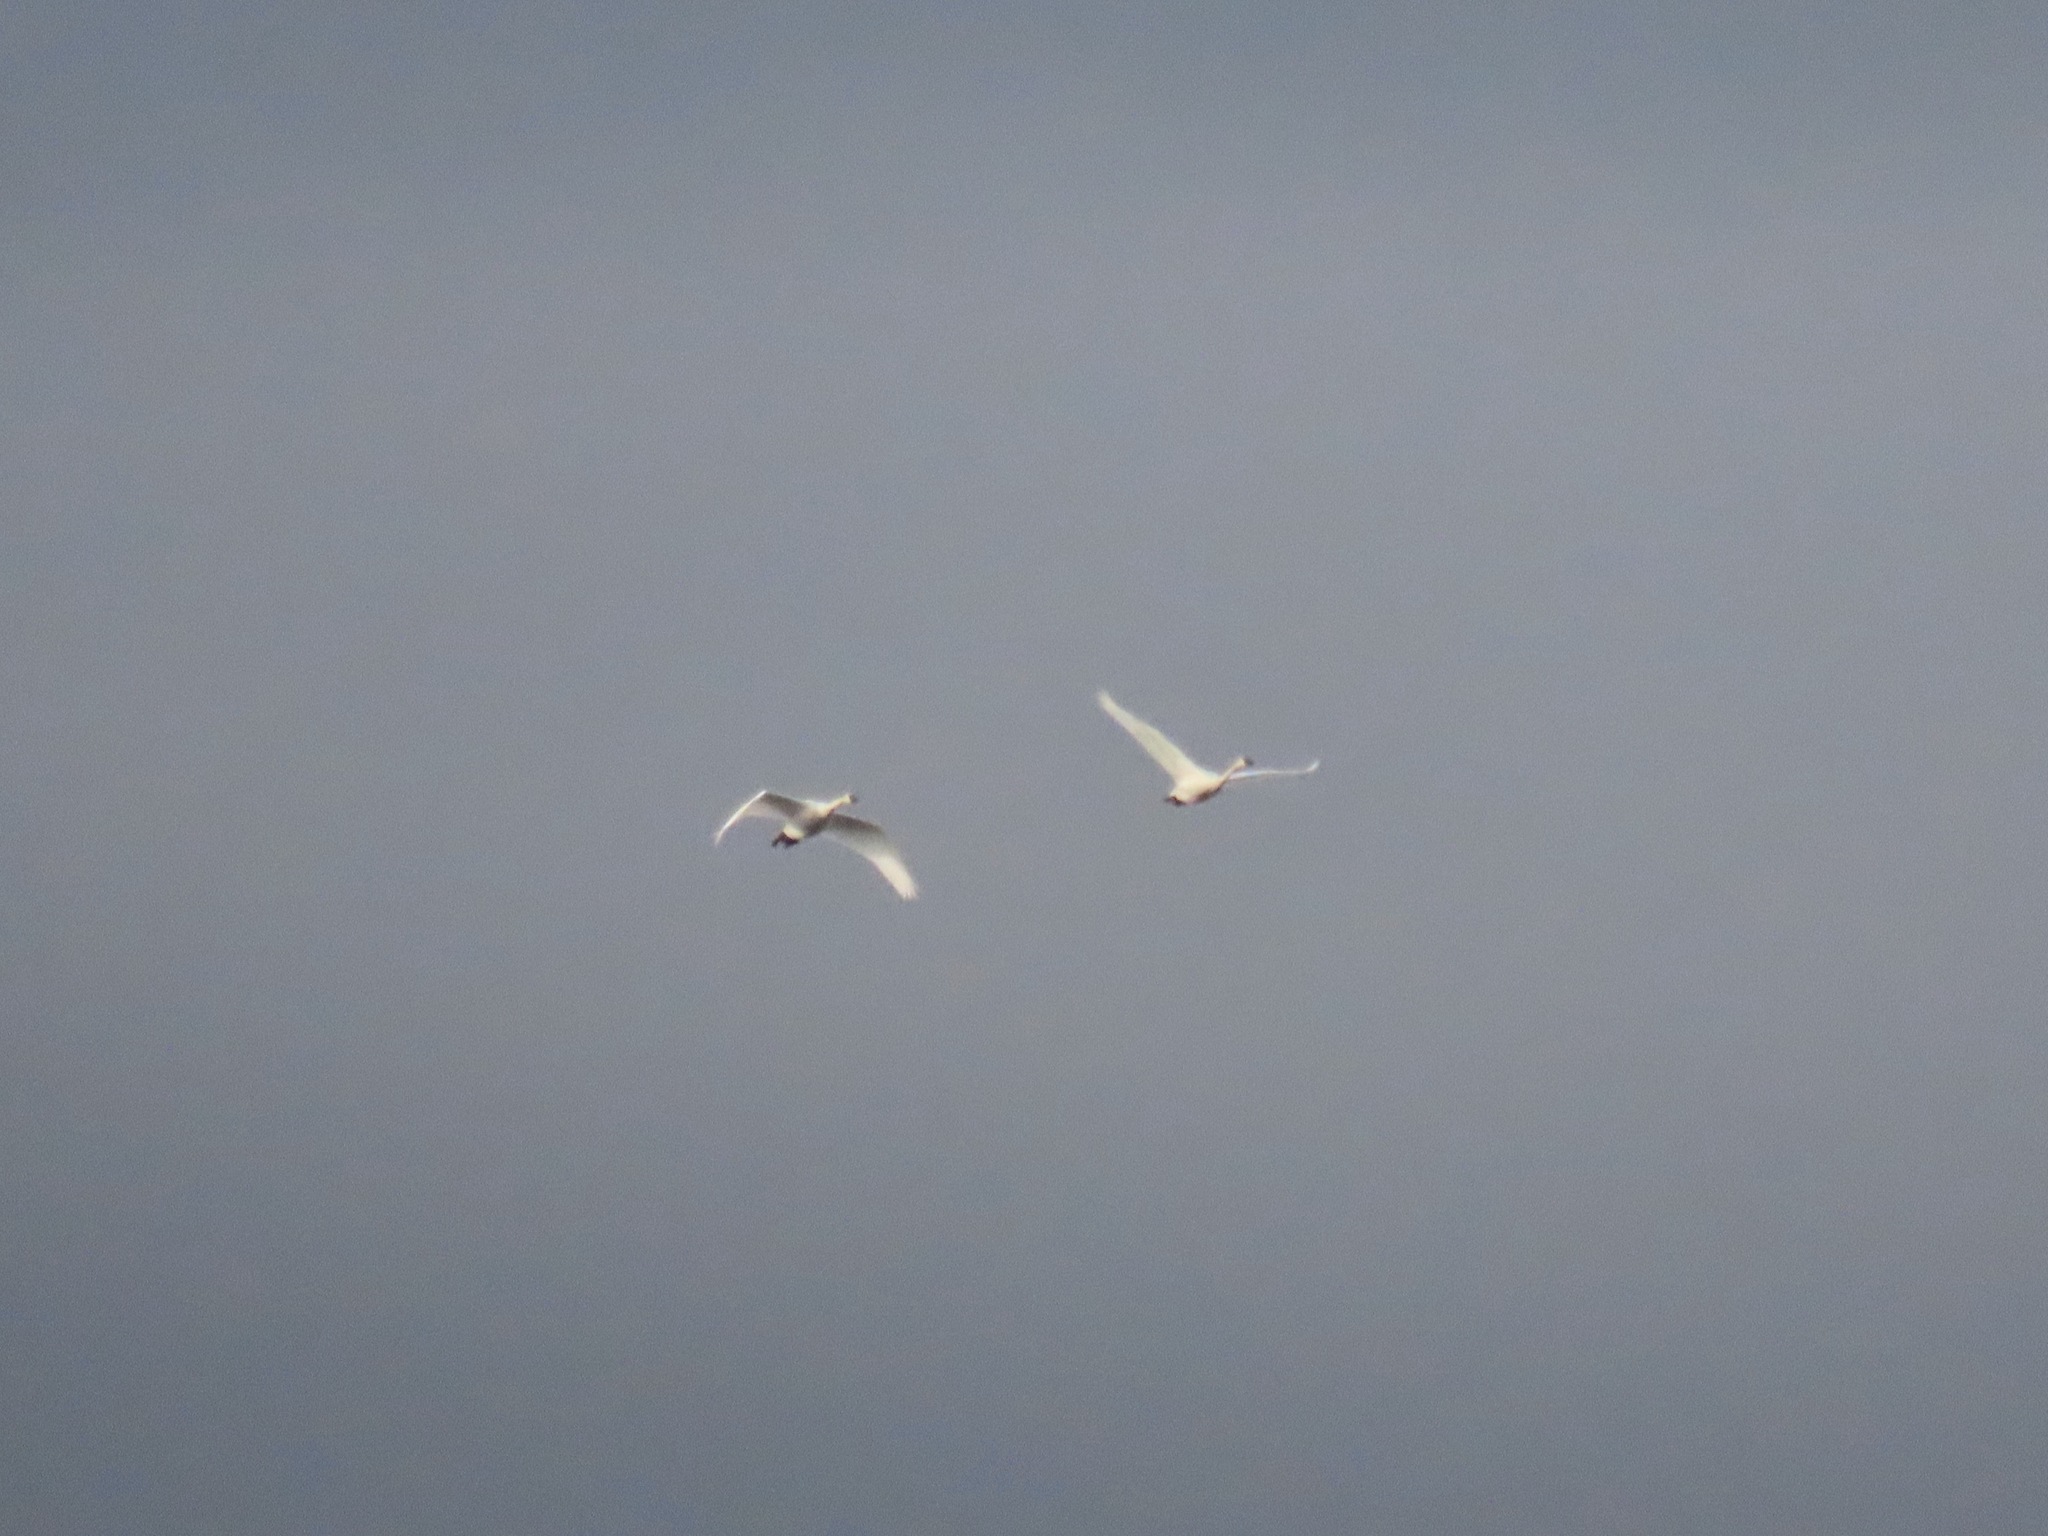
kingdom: Animalia
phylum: Chordata
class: Aves
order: Anseriformes
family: Anatidae
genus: Cygnus
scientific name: Cygnus buccinator
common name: Trumpeter swan
